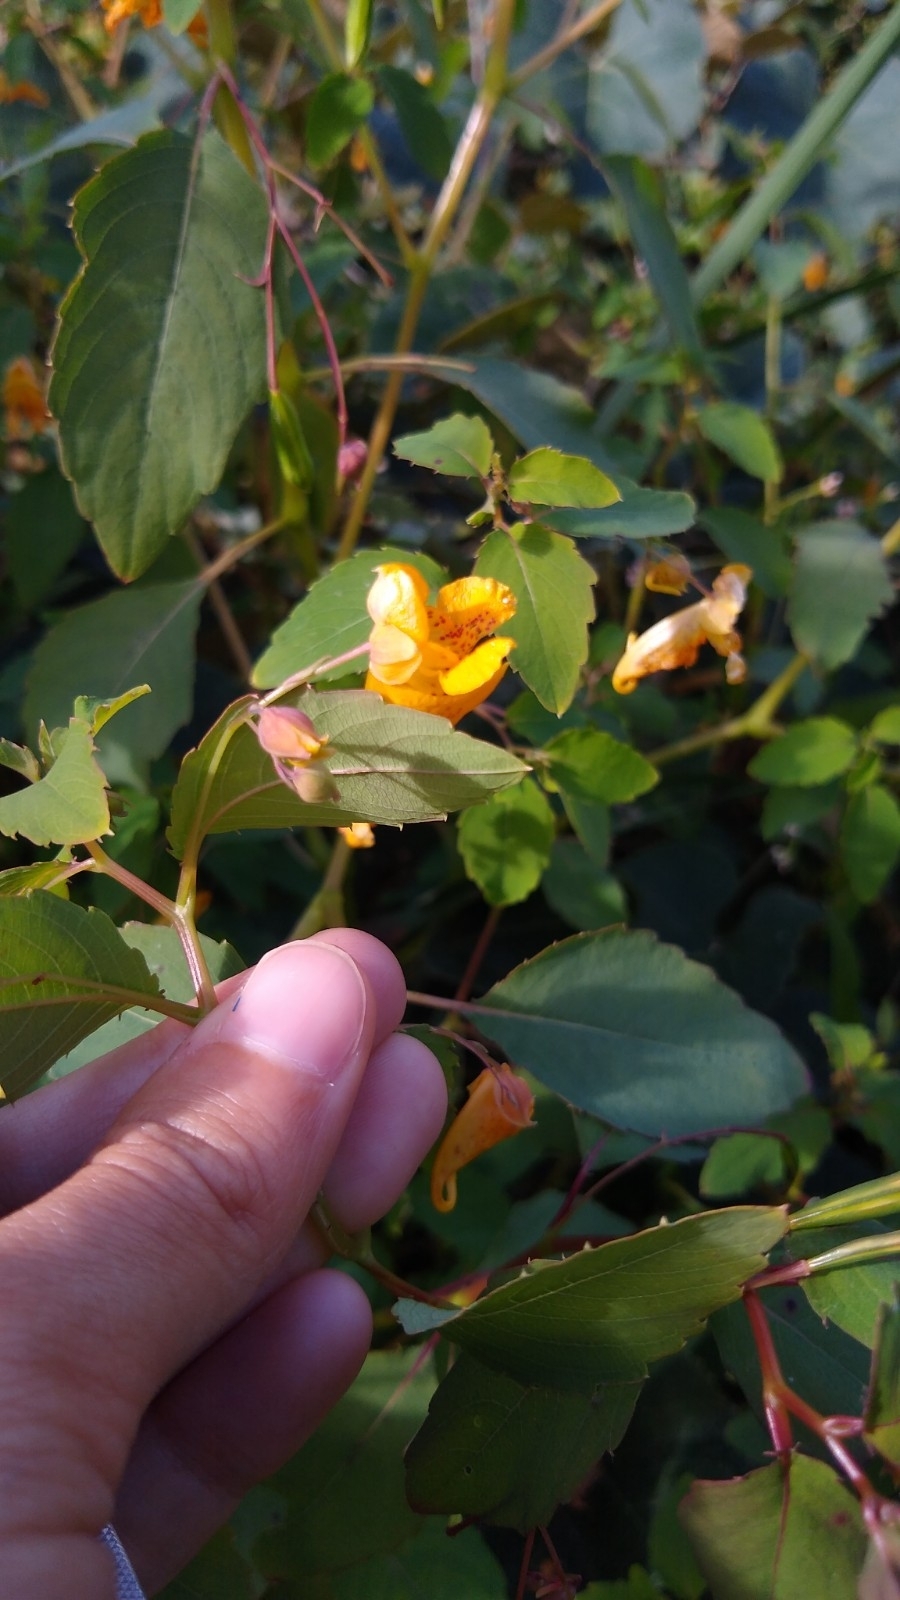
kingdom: Plantae
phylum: Tracheophyta
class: Magnoliopsida
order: Ericales
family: Balsaminaceae
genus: Impatiens
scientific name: Impatiens capensis
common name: Orange balsam
